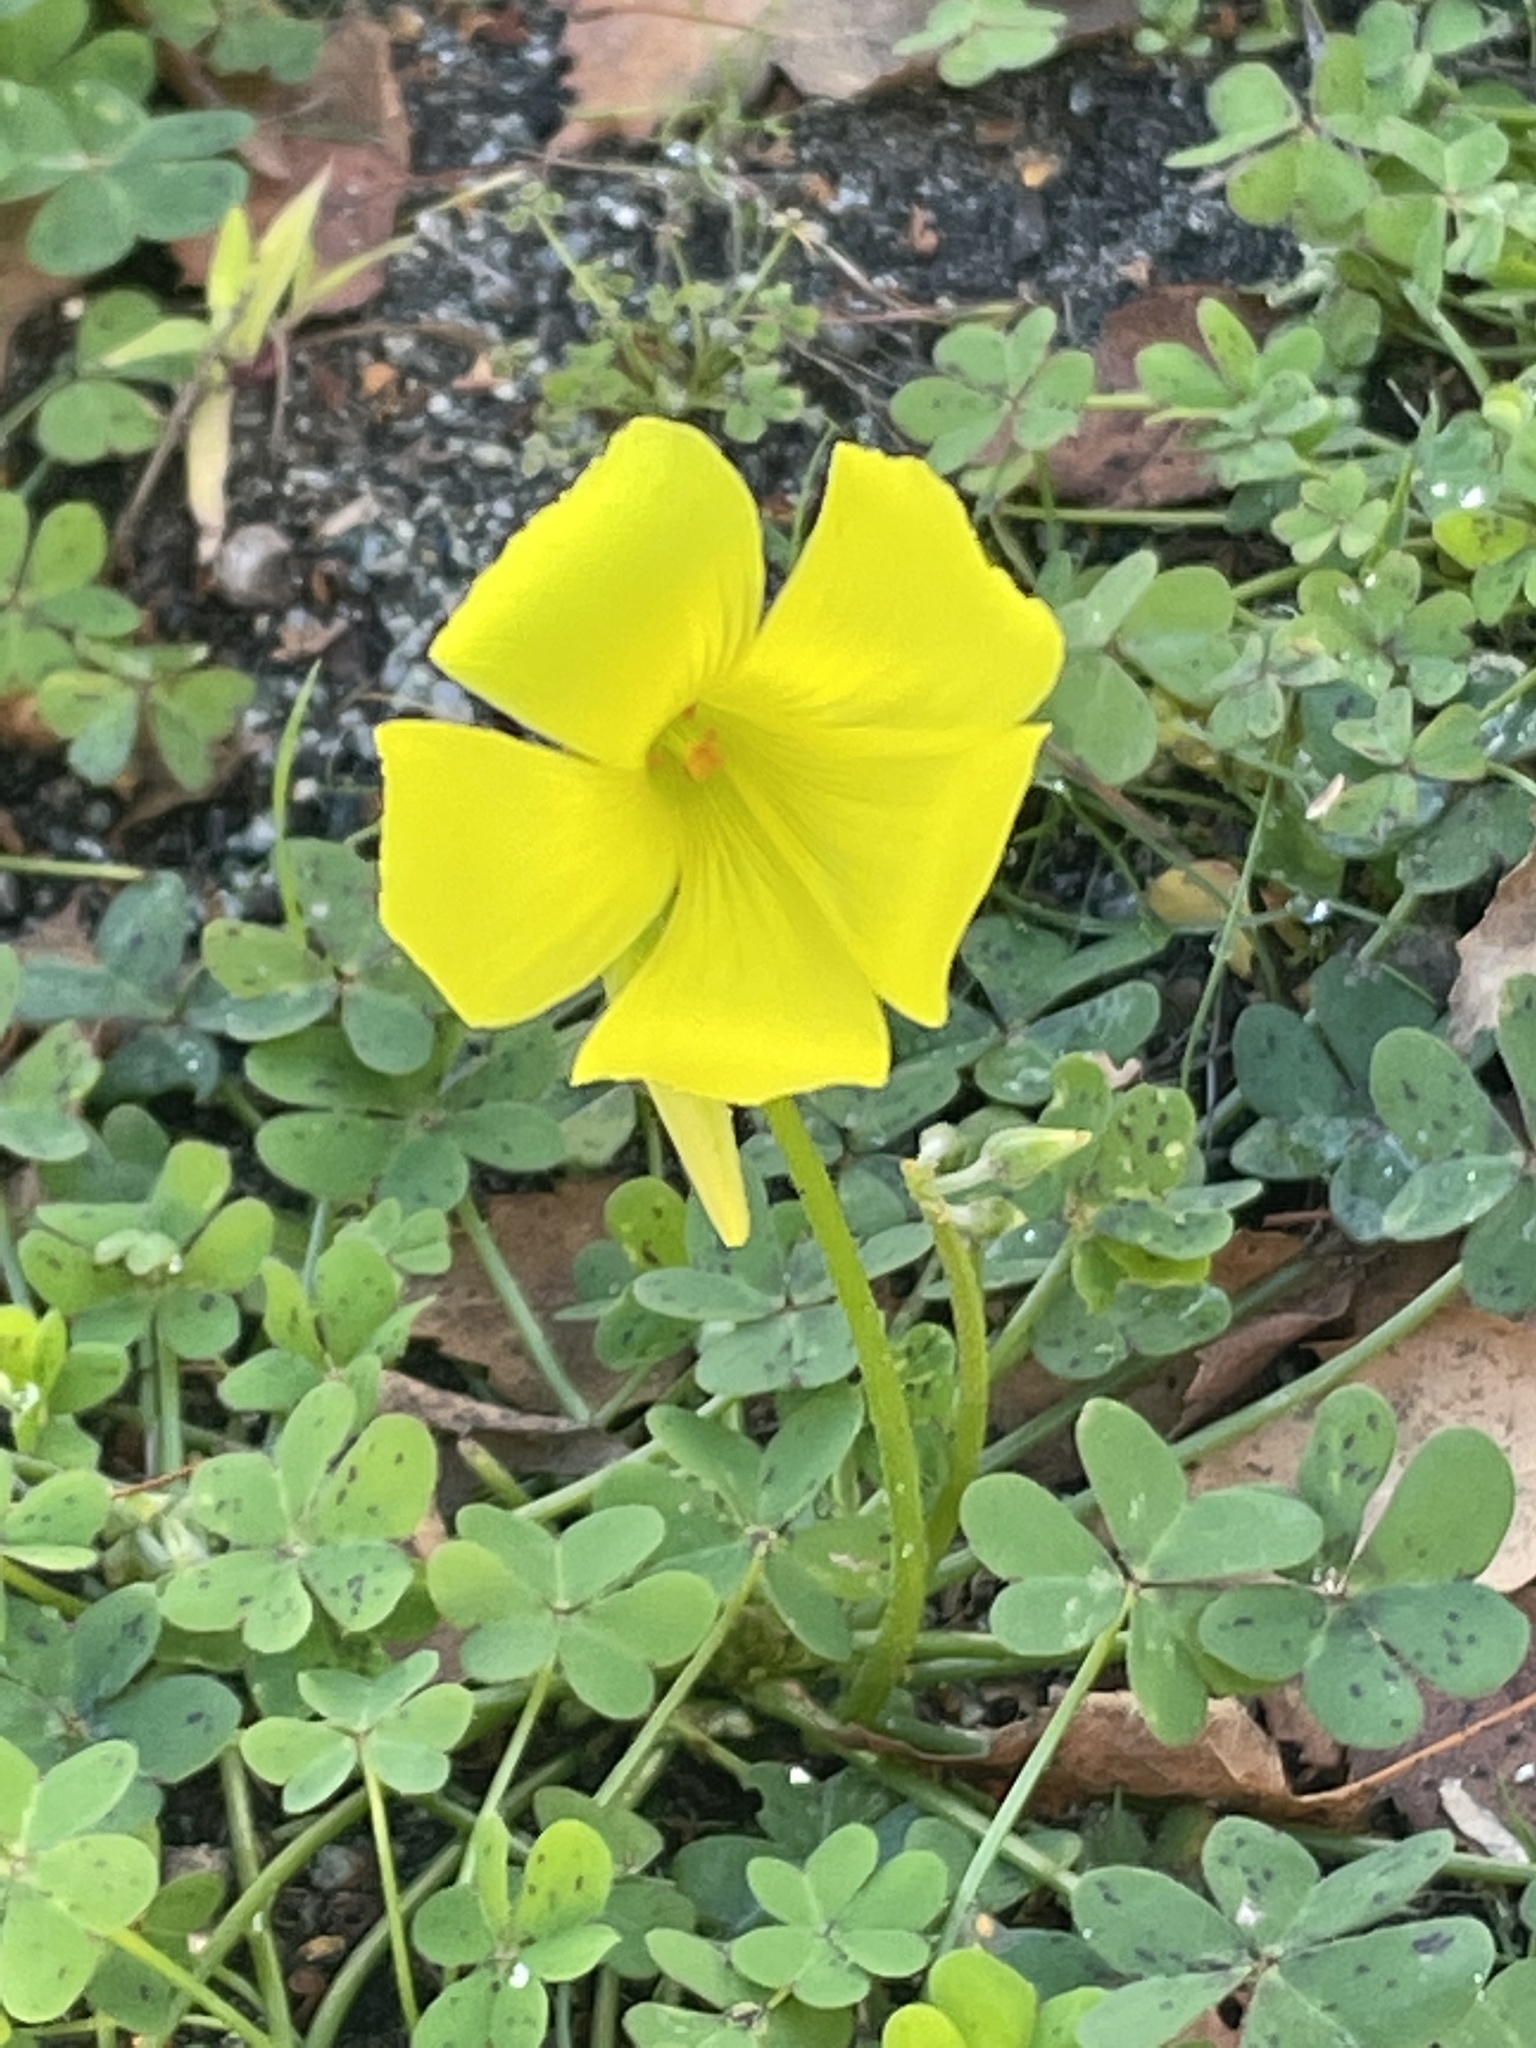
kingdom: Plantae
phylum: Tracheophyta
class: Magnoliopsida
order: Oxalidales
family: Oxalidaceae
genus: Oxalis
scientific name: Oxalis pes-caprae
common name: Bermuda-buttercup
